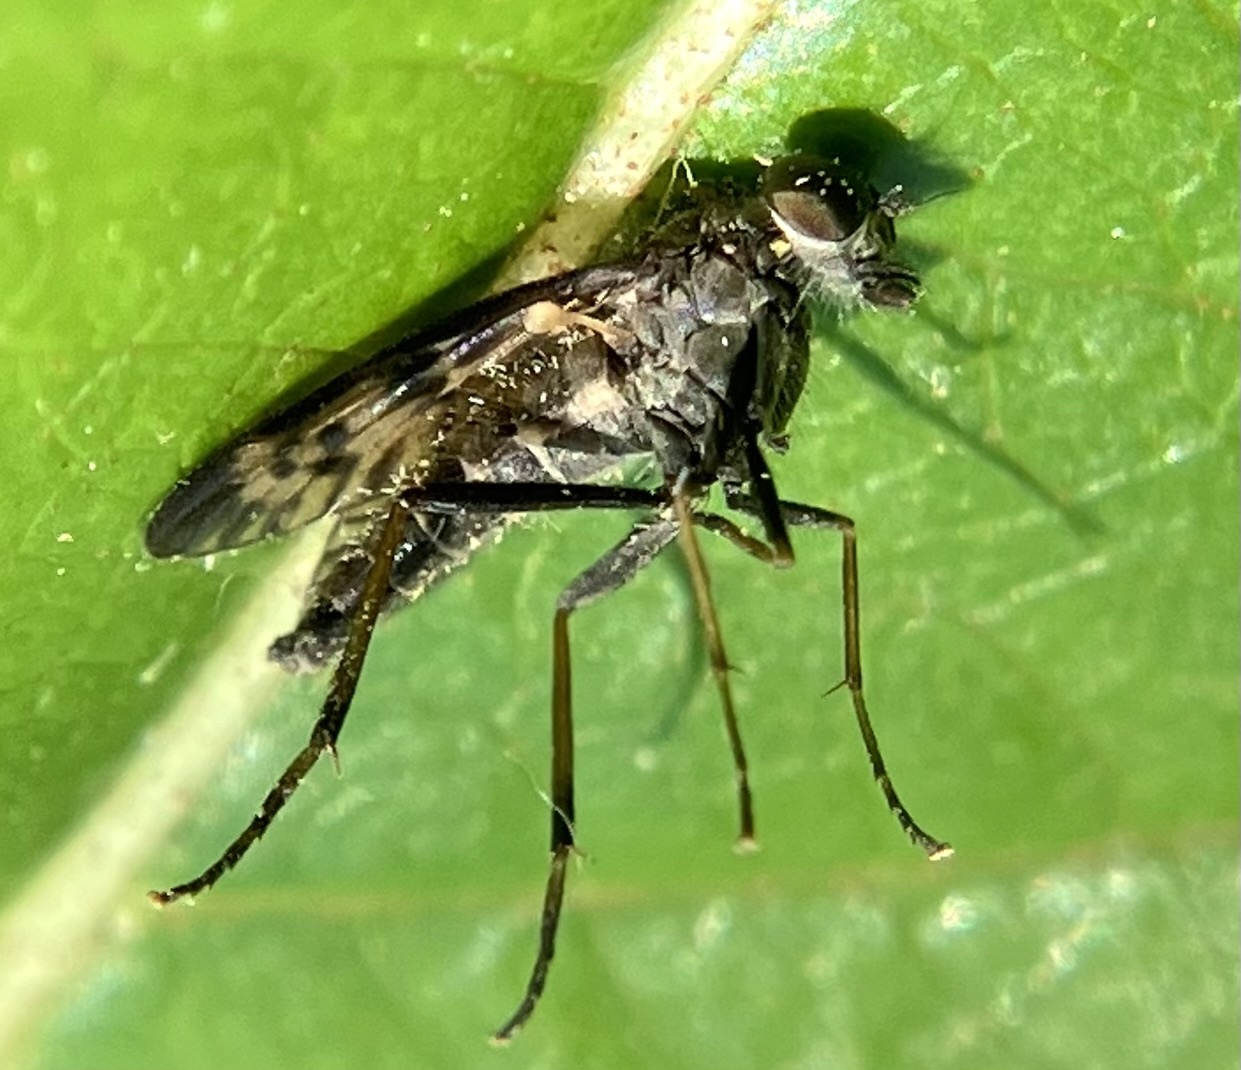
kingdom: Animalia
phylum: Arthropoda
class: Insecta
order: Diptera
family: Rhagionidae
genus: Rhagio
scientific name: Rhagio punctipennis
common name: Lesser variegated snipe fly
